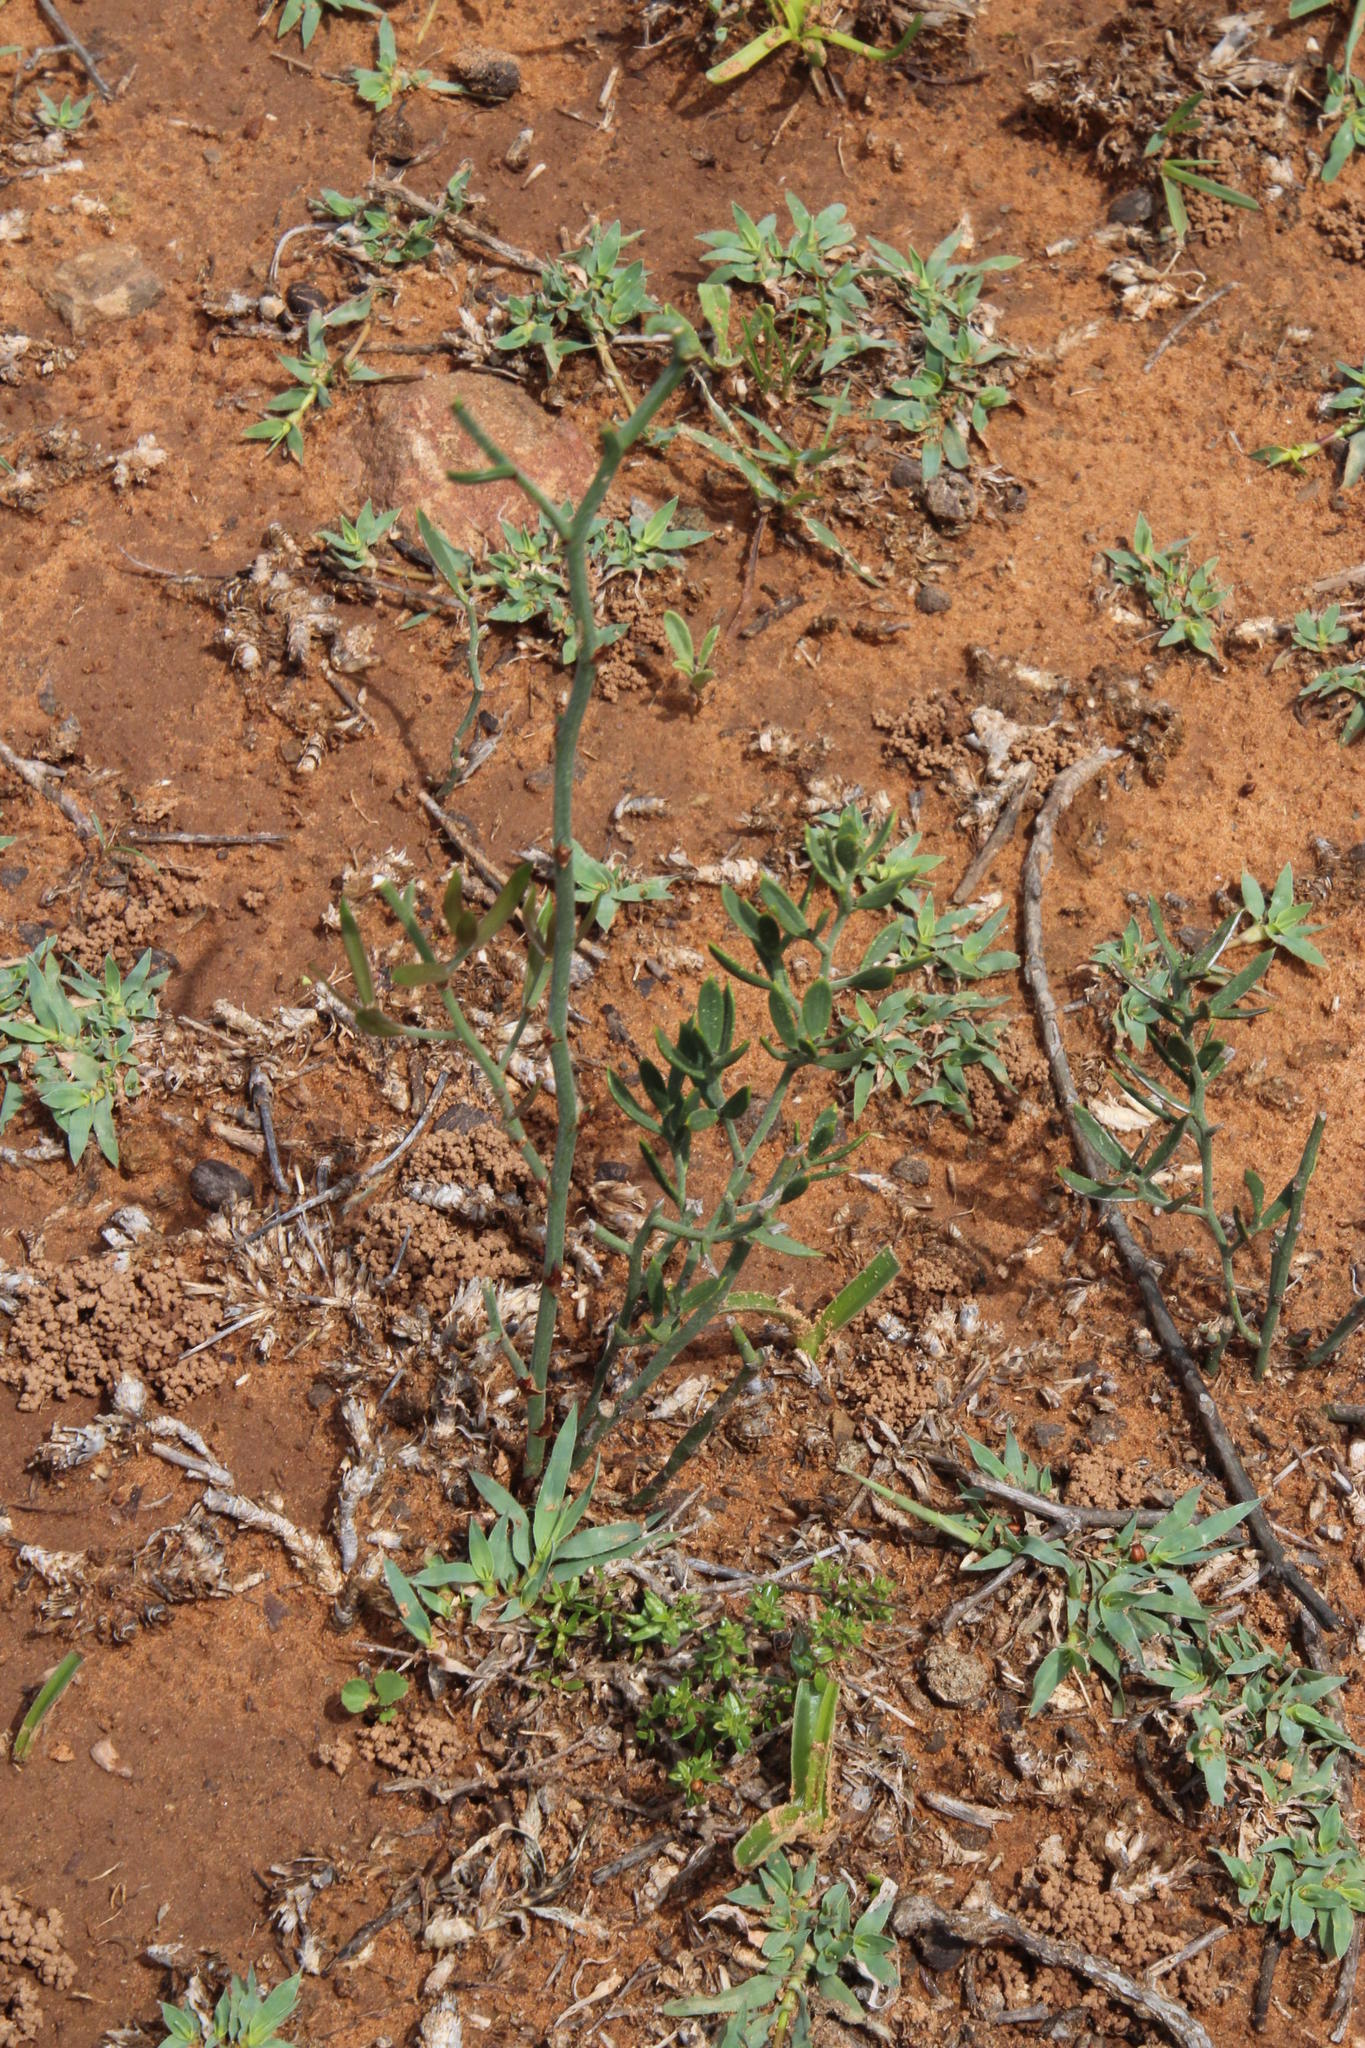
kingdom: Plantae
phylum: Tracheophyta
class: Liliopsida
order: Asparagales
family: Asparagaceae
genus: Asparagus
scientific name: Asparagus striatus
